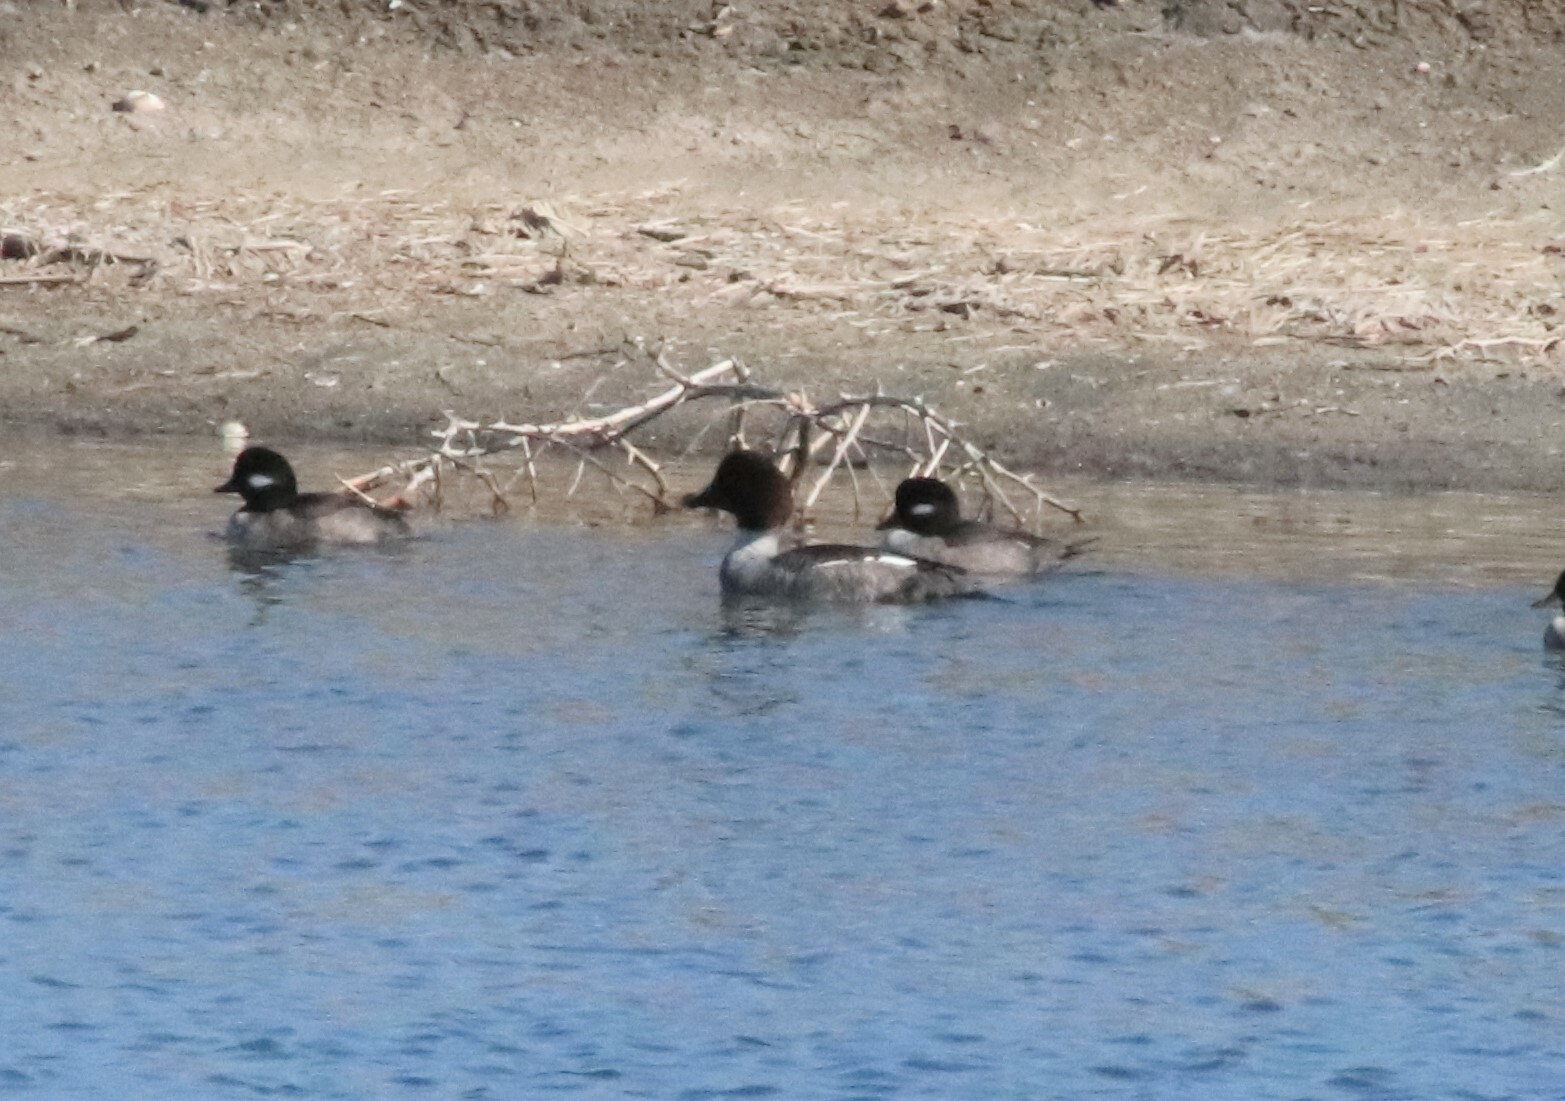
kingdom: Animalia
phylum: Chordata
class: Aves
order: Anseriformes
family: Anatidae
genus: Bucephala
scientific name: Bucephala clangula
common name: Common goldeneye
